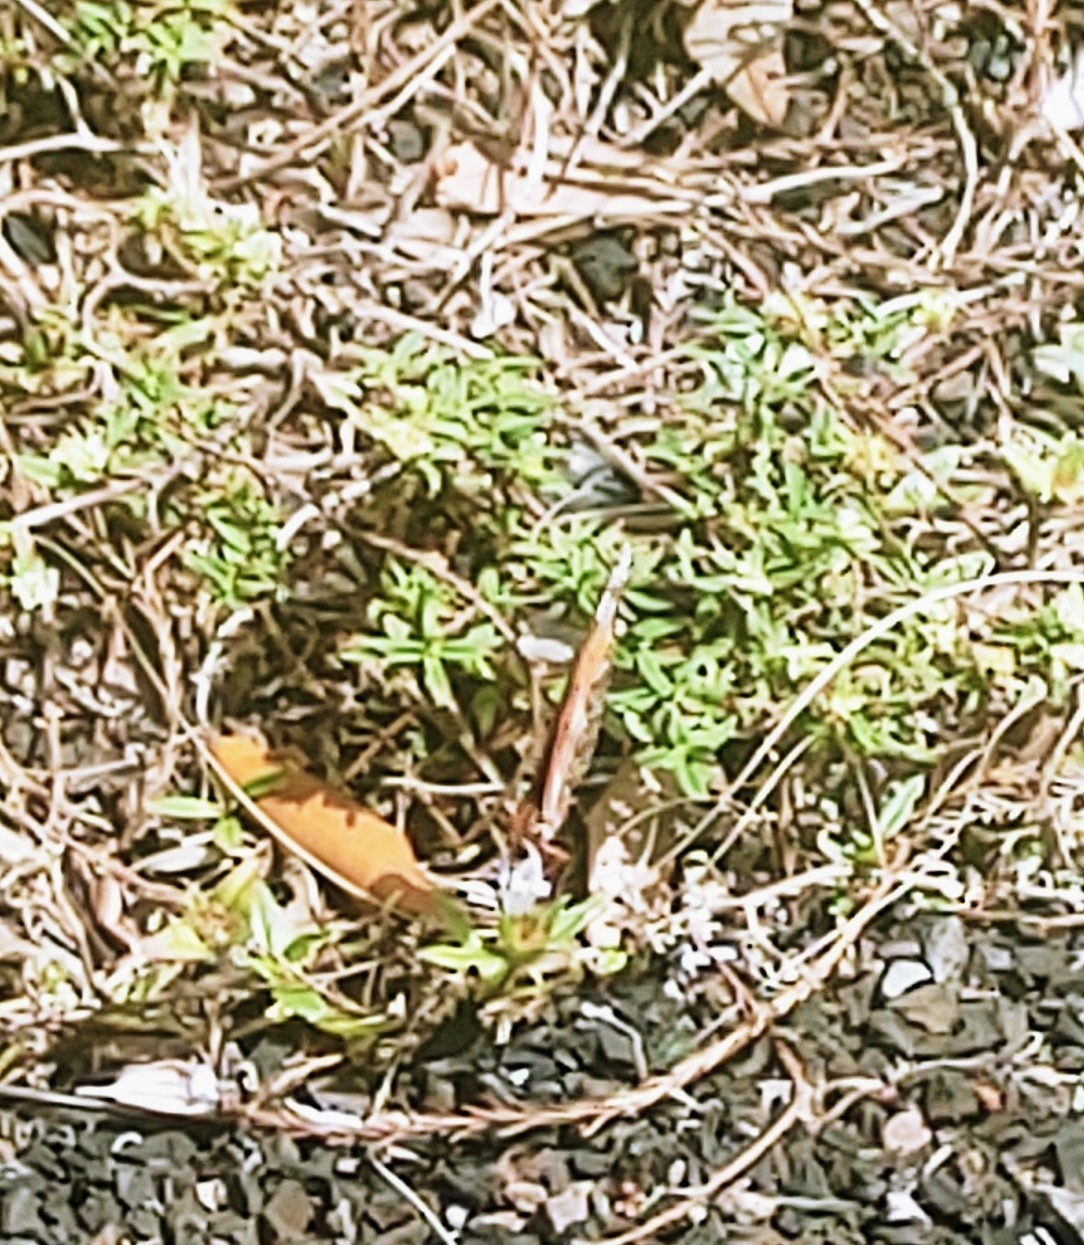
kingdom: Animalia
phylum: Arthropoda
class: Insecta
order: Lepidoptera
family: Nymphalidae
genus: Dione
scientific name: Dione vanillae
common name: Gulf fritillary
